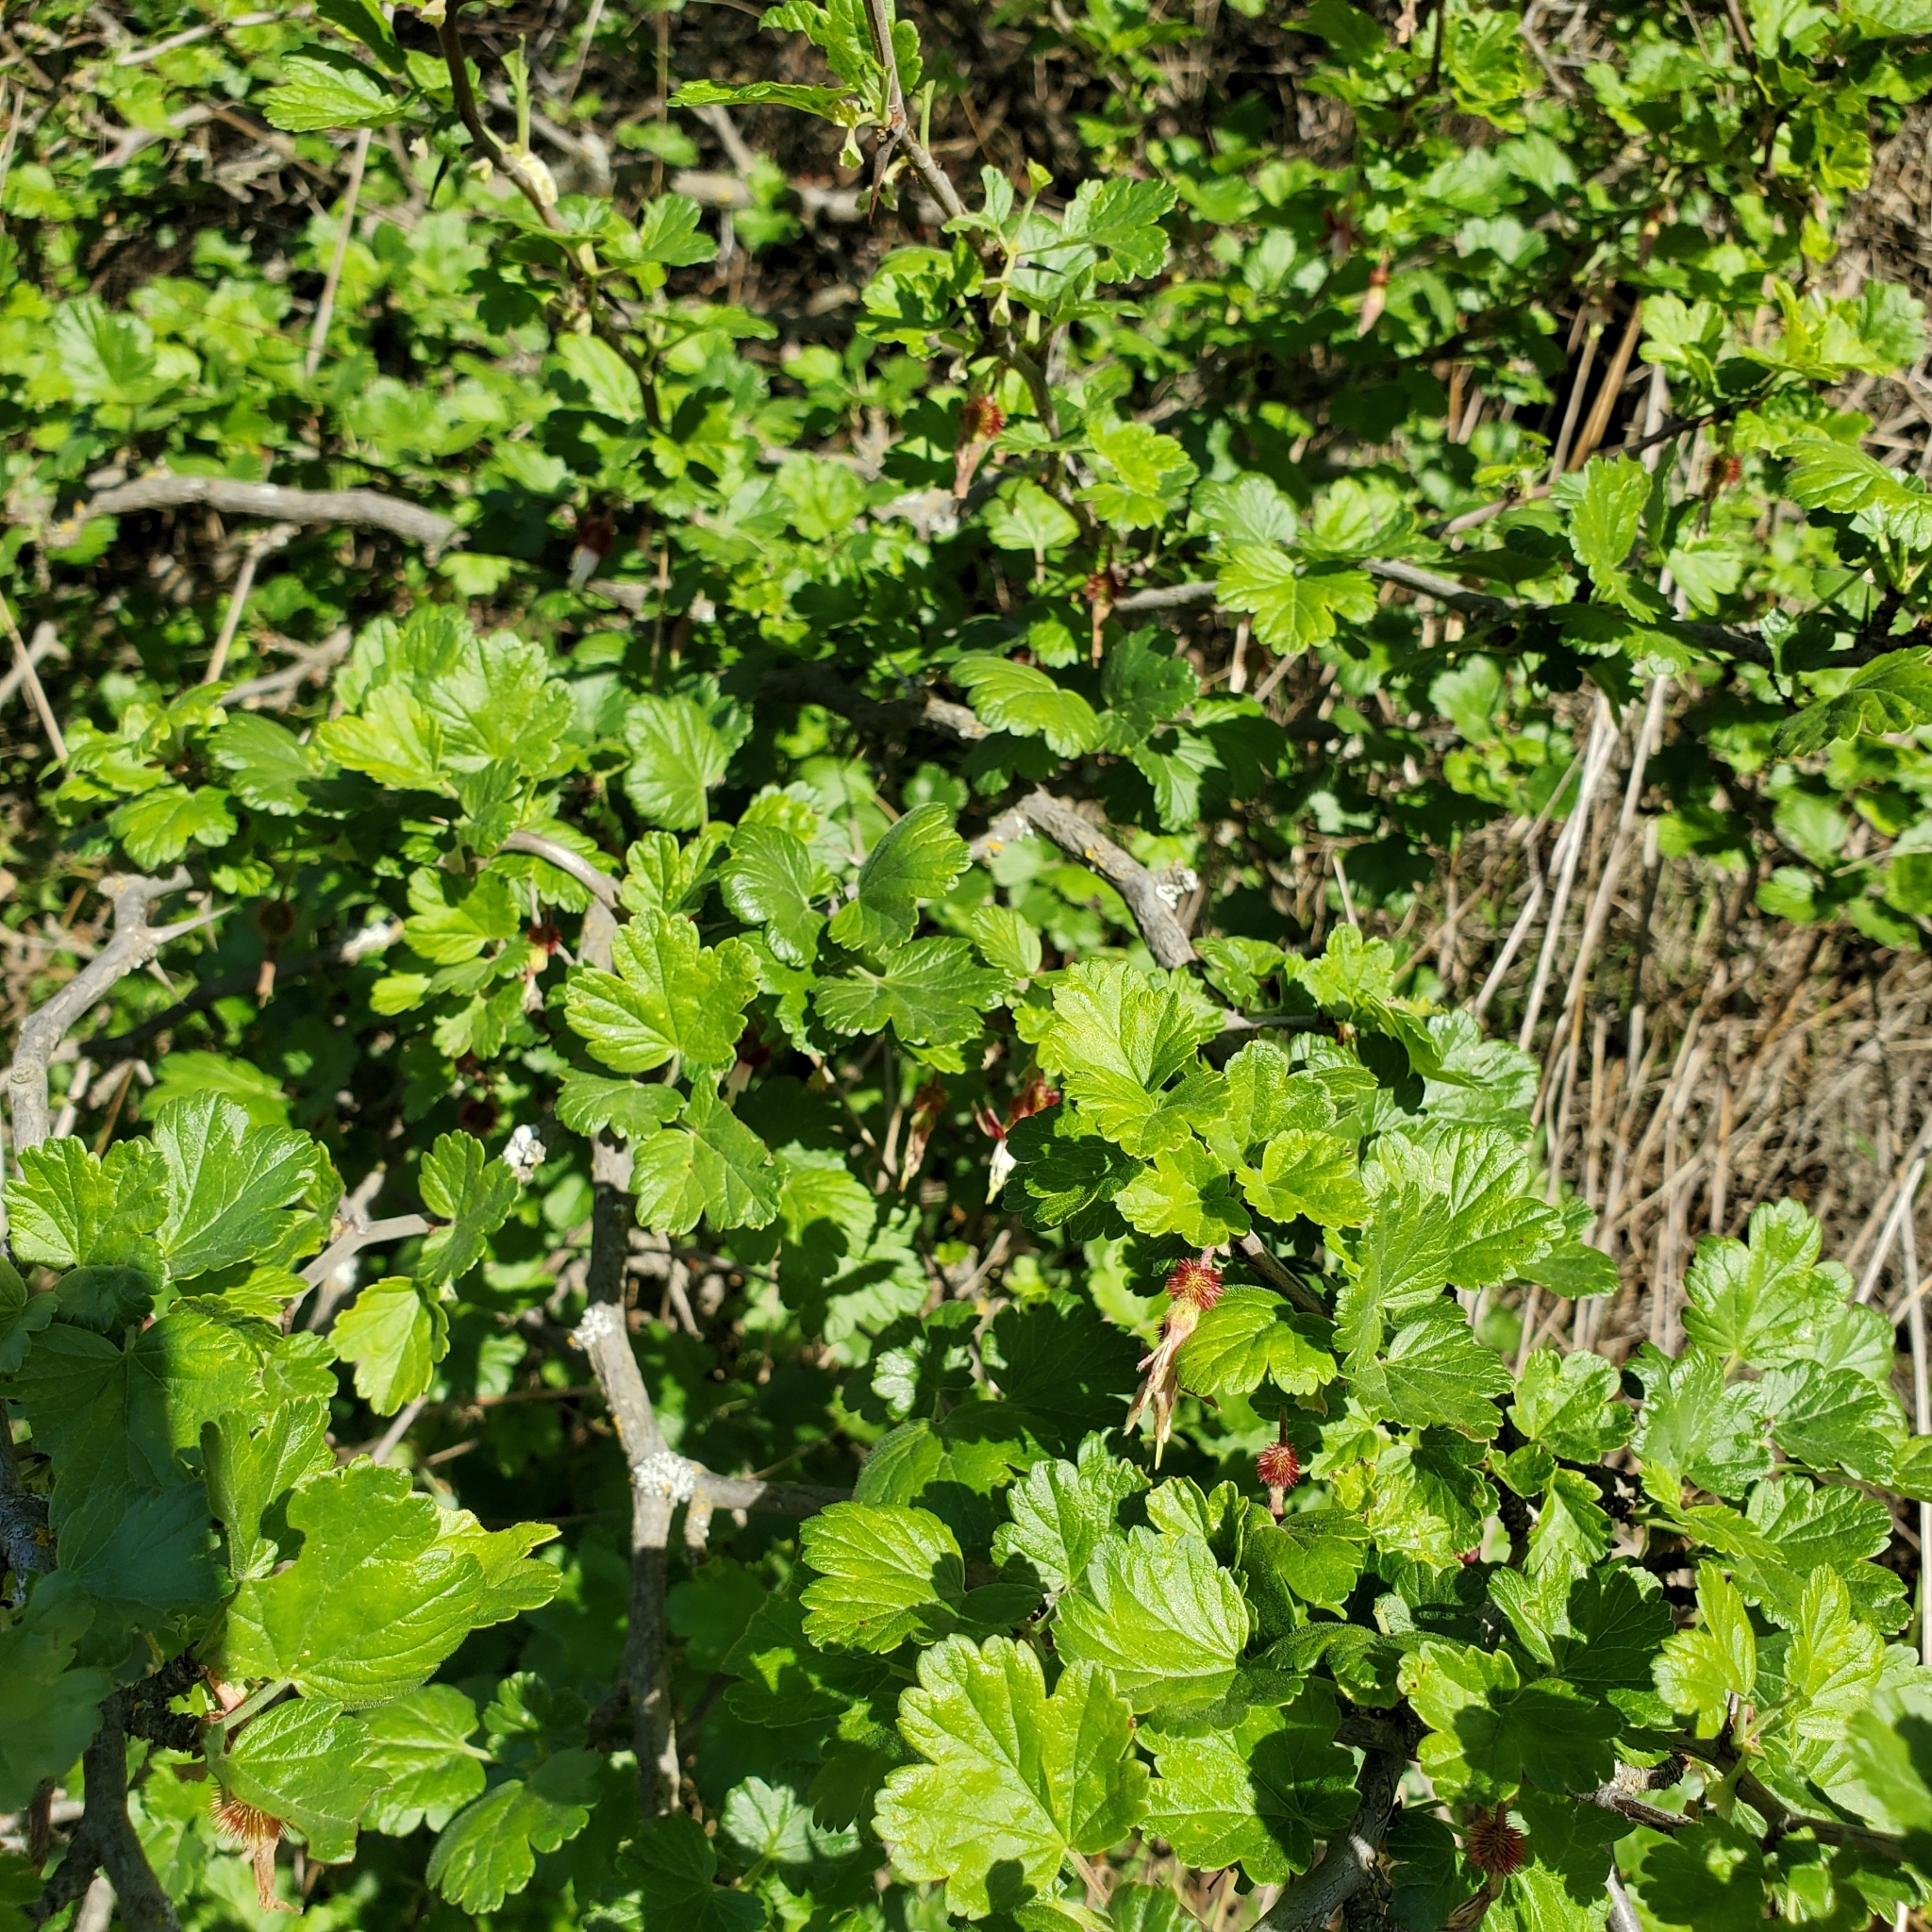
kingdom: Plantae
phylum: Tracheophyta
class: Magnoliopsida
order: Saxifragales
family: Grossulariaceae
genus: Ribes
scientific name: Ribes californicum
